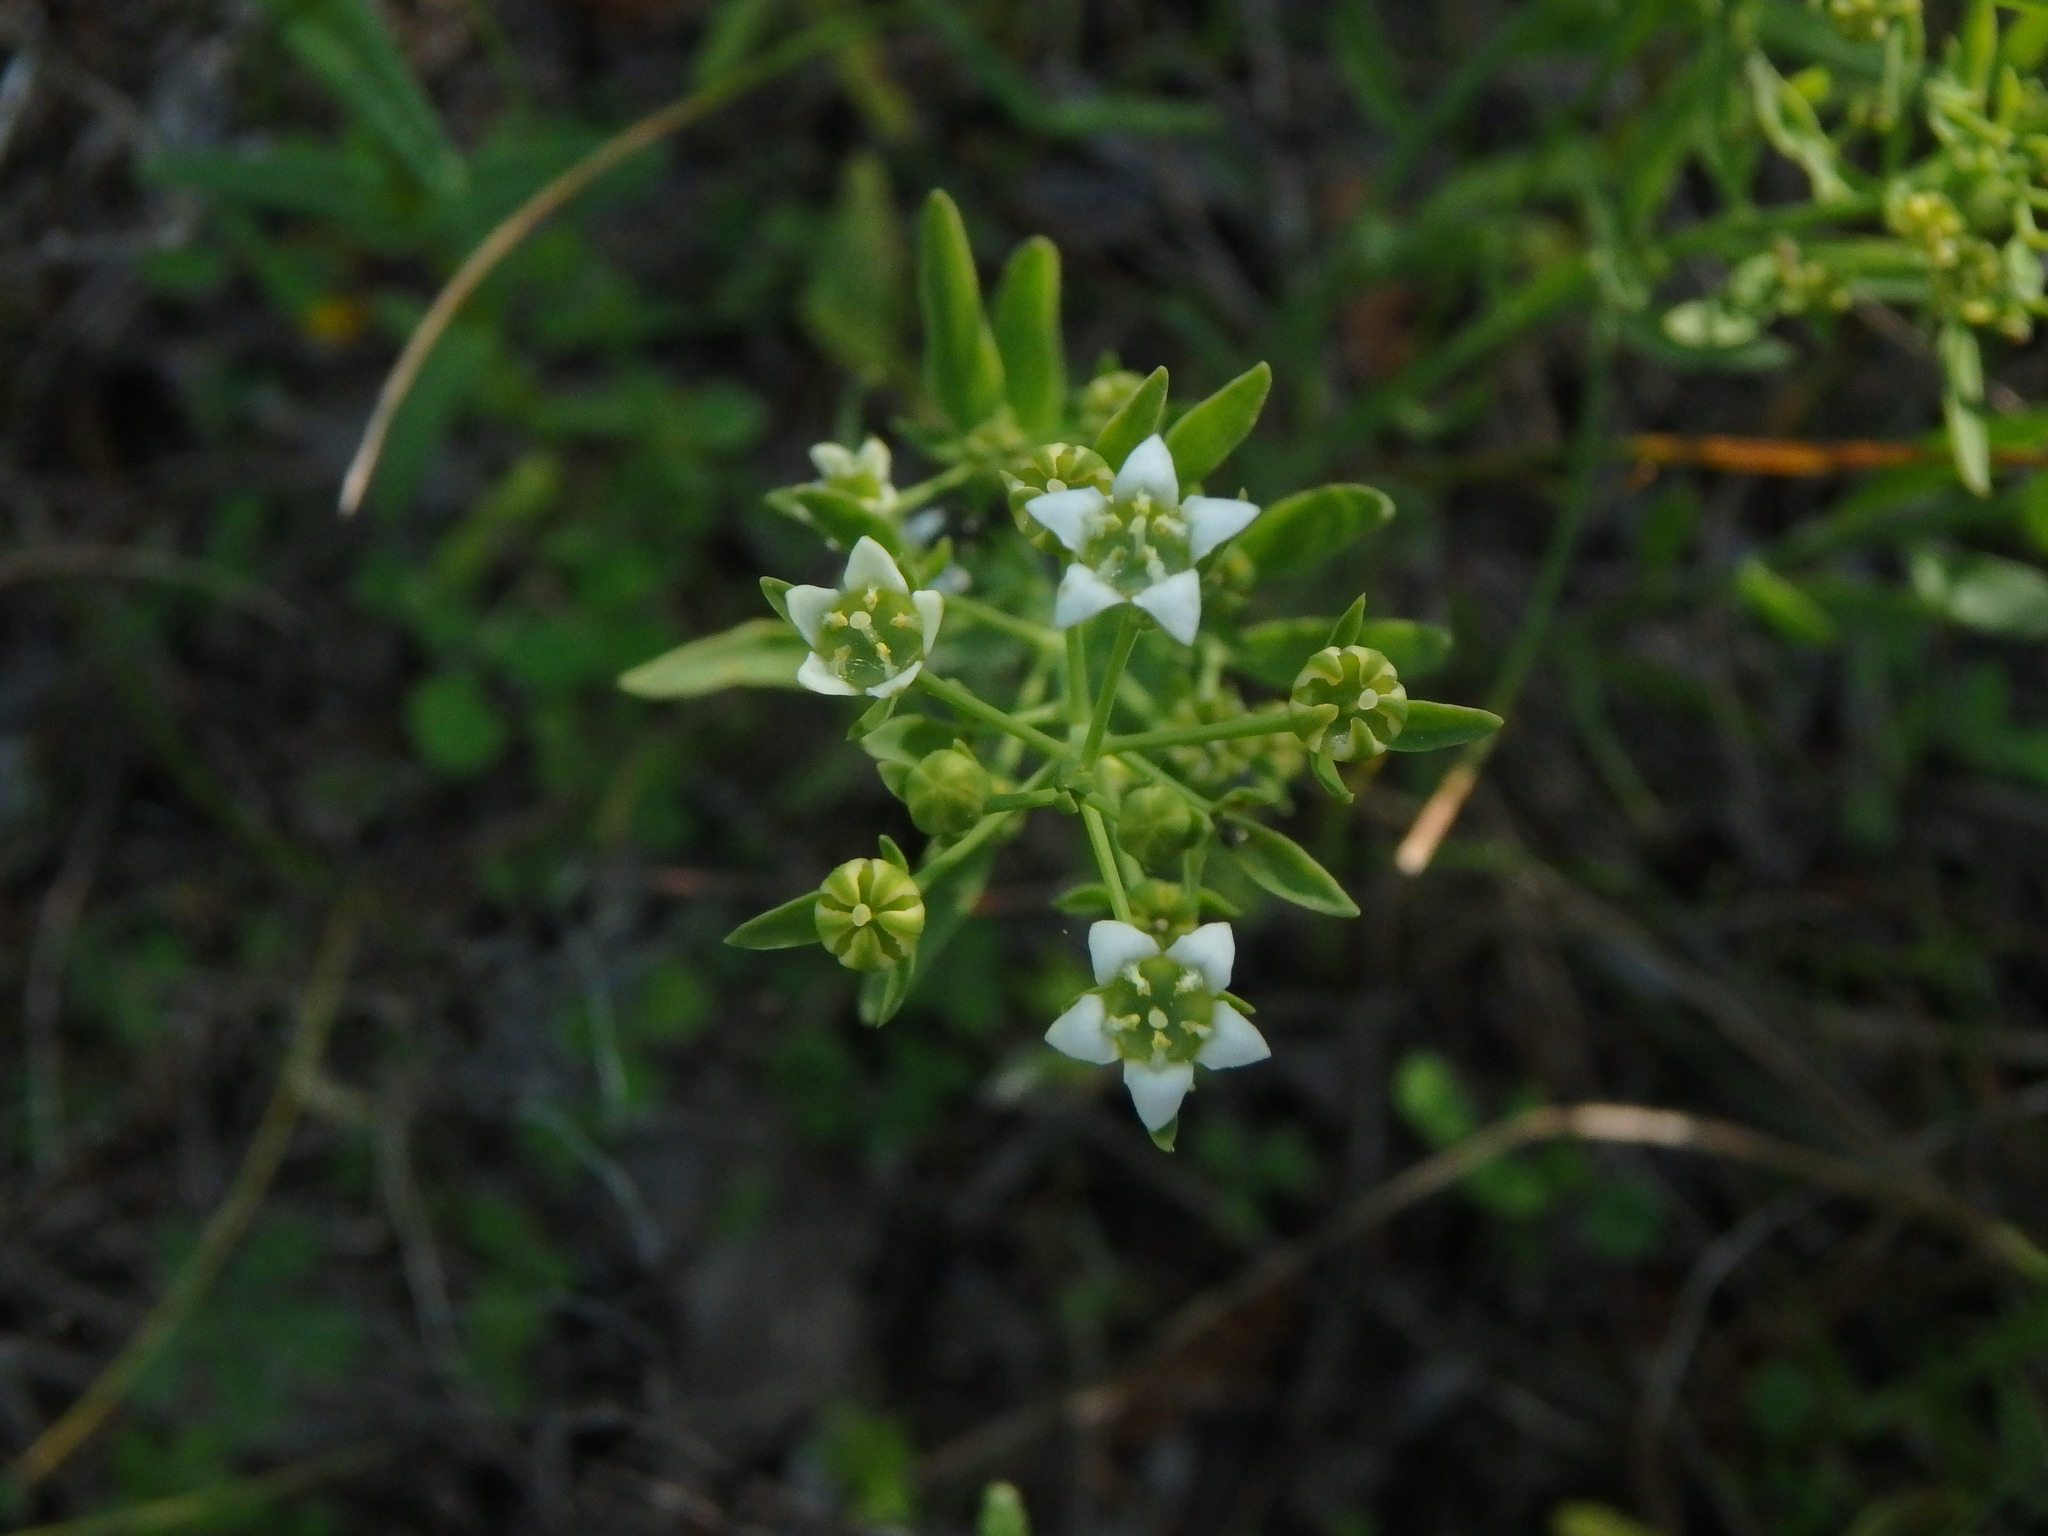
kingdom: Plantae
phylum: Tracheophyta
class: Magnoliopsida
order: Santalales
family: Thesiaceae
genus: Thesium
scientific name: Thesium linophyllon
